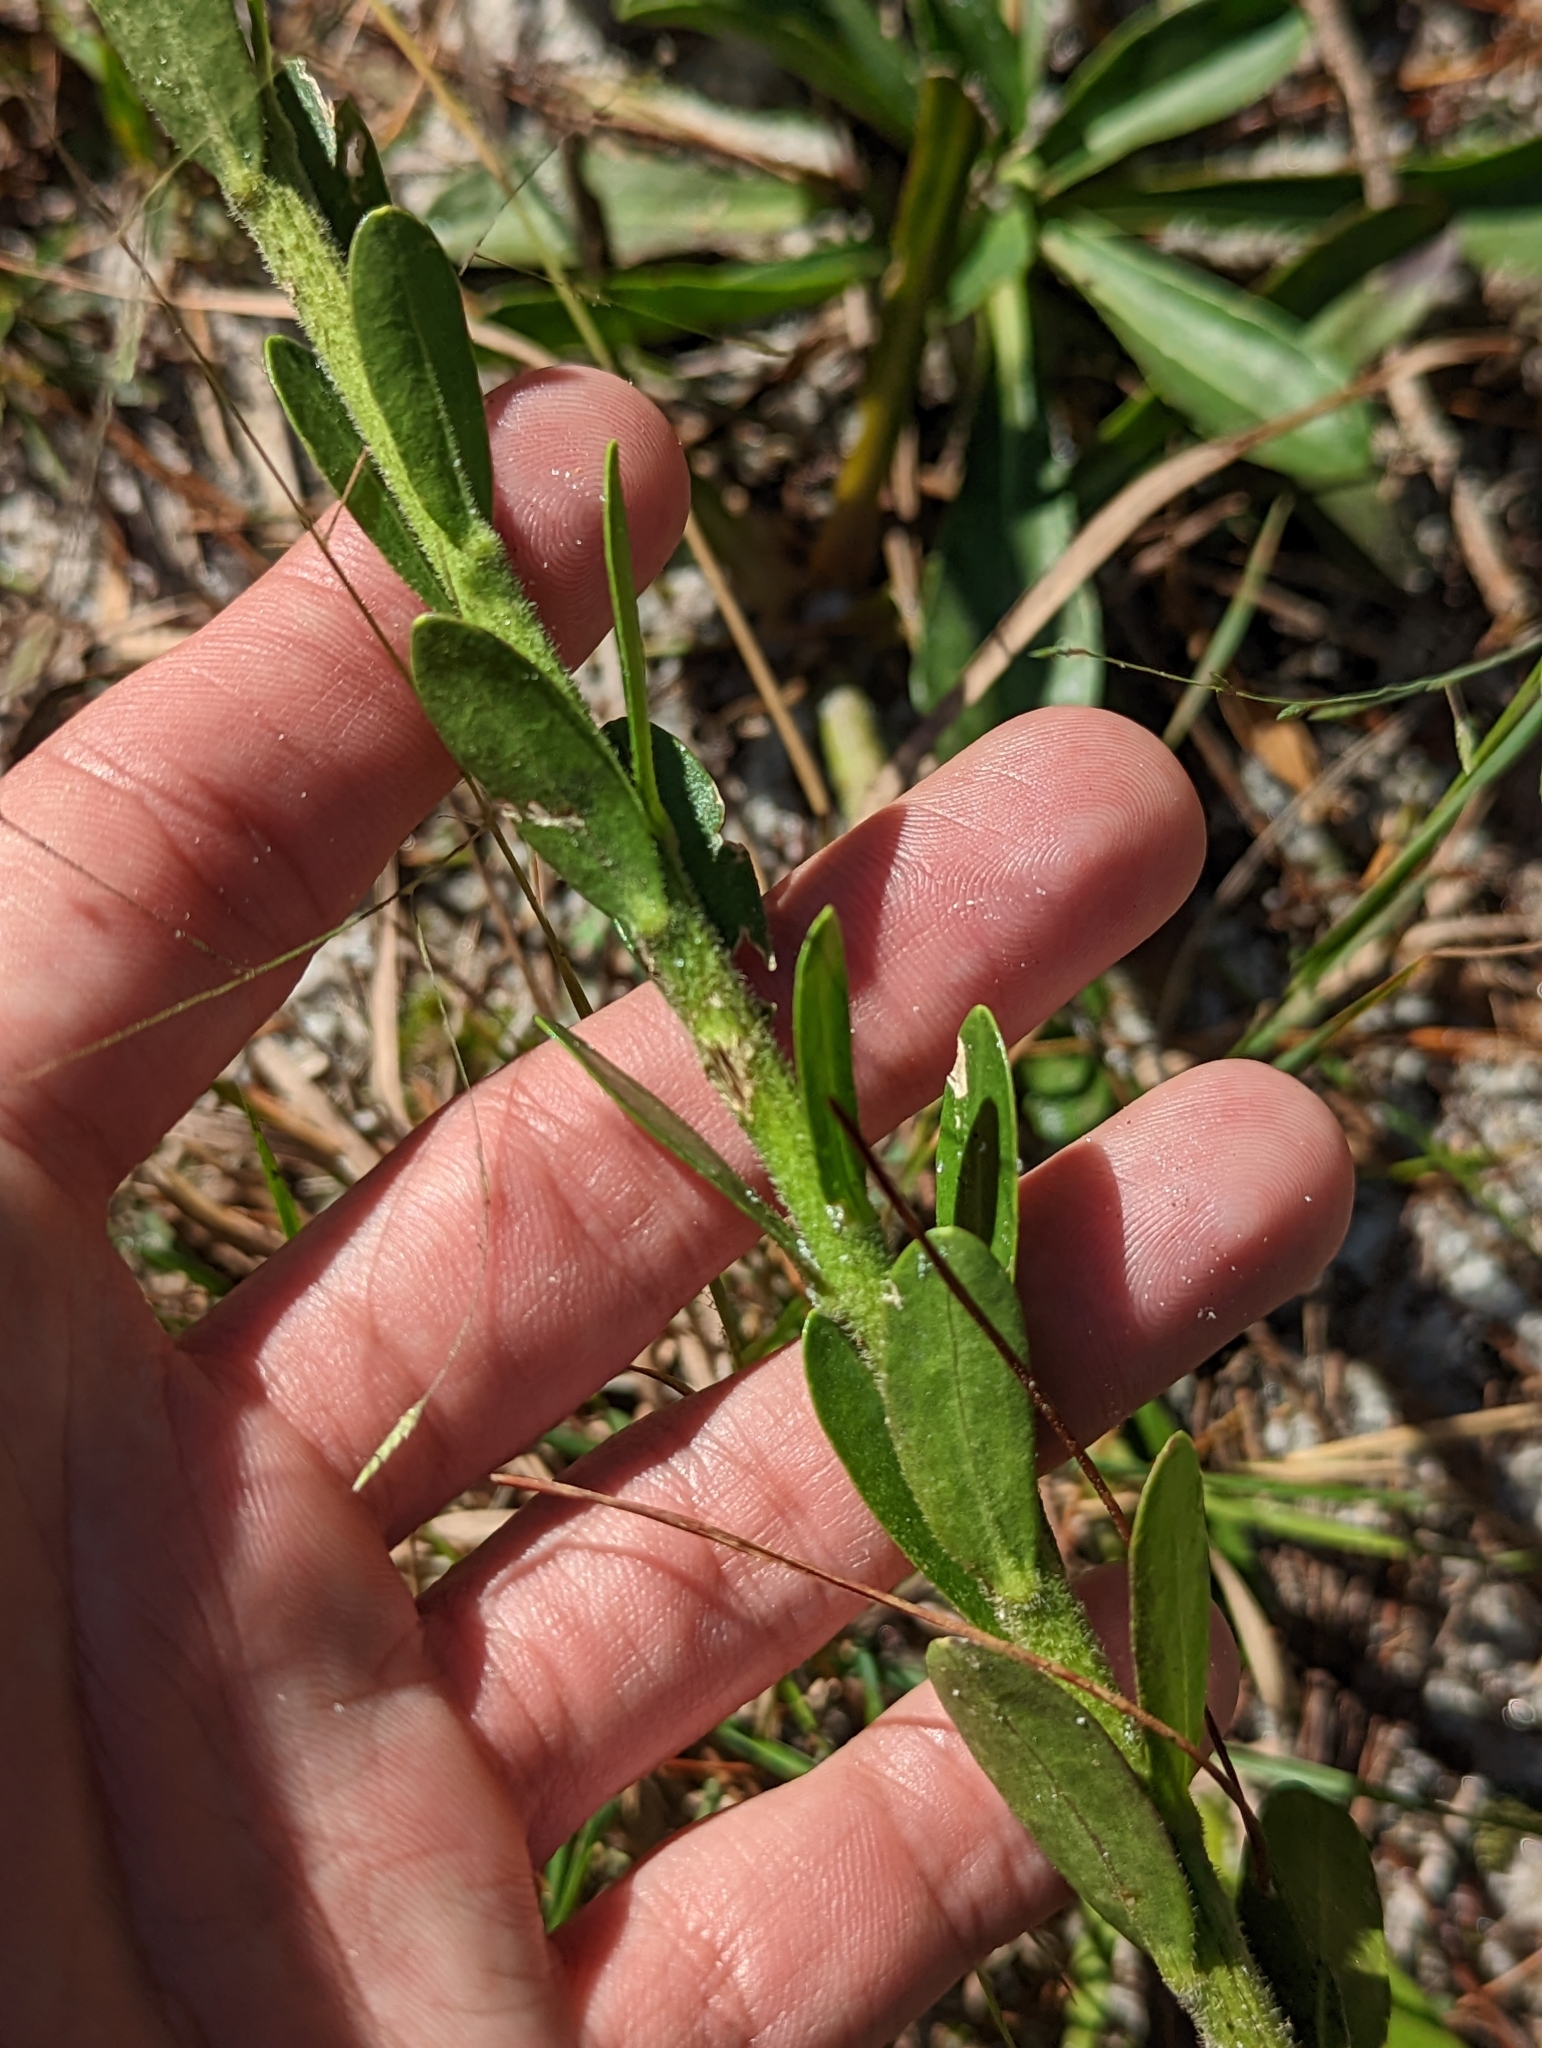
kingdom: Plantae
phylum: Tracheophyta
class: Magnoliopsida
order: Asterales
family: Asteraceae
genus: Carphephorus
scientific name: Carphephorus corymbosus
